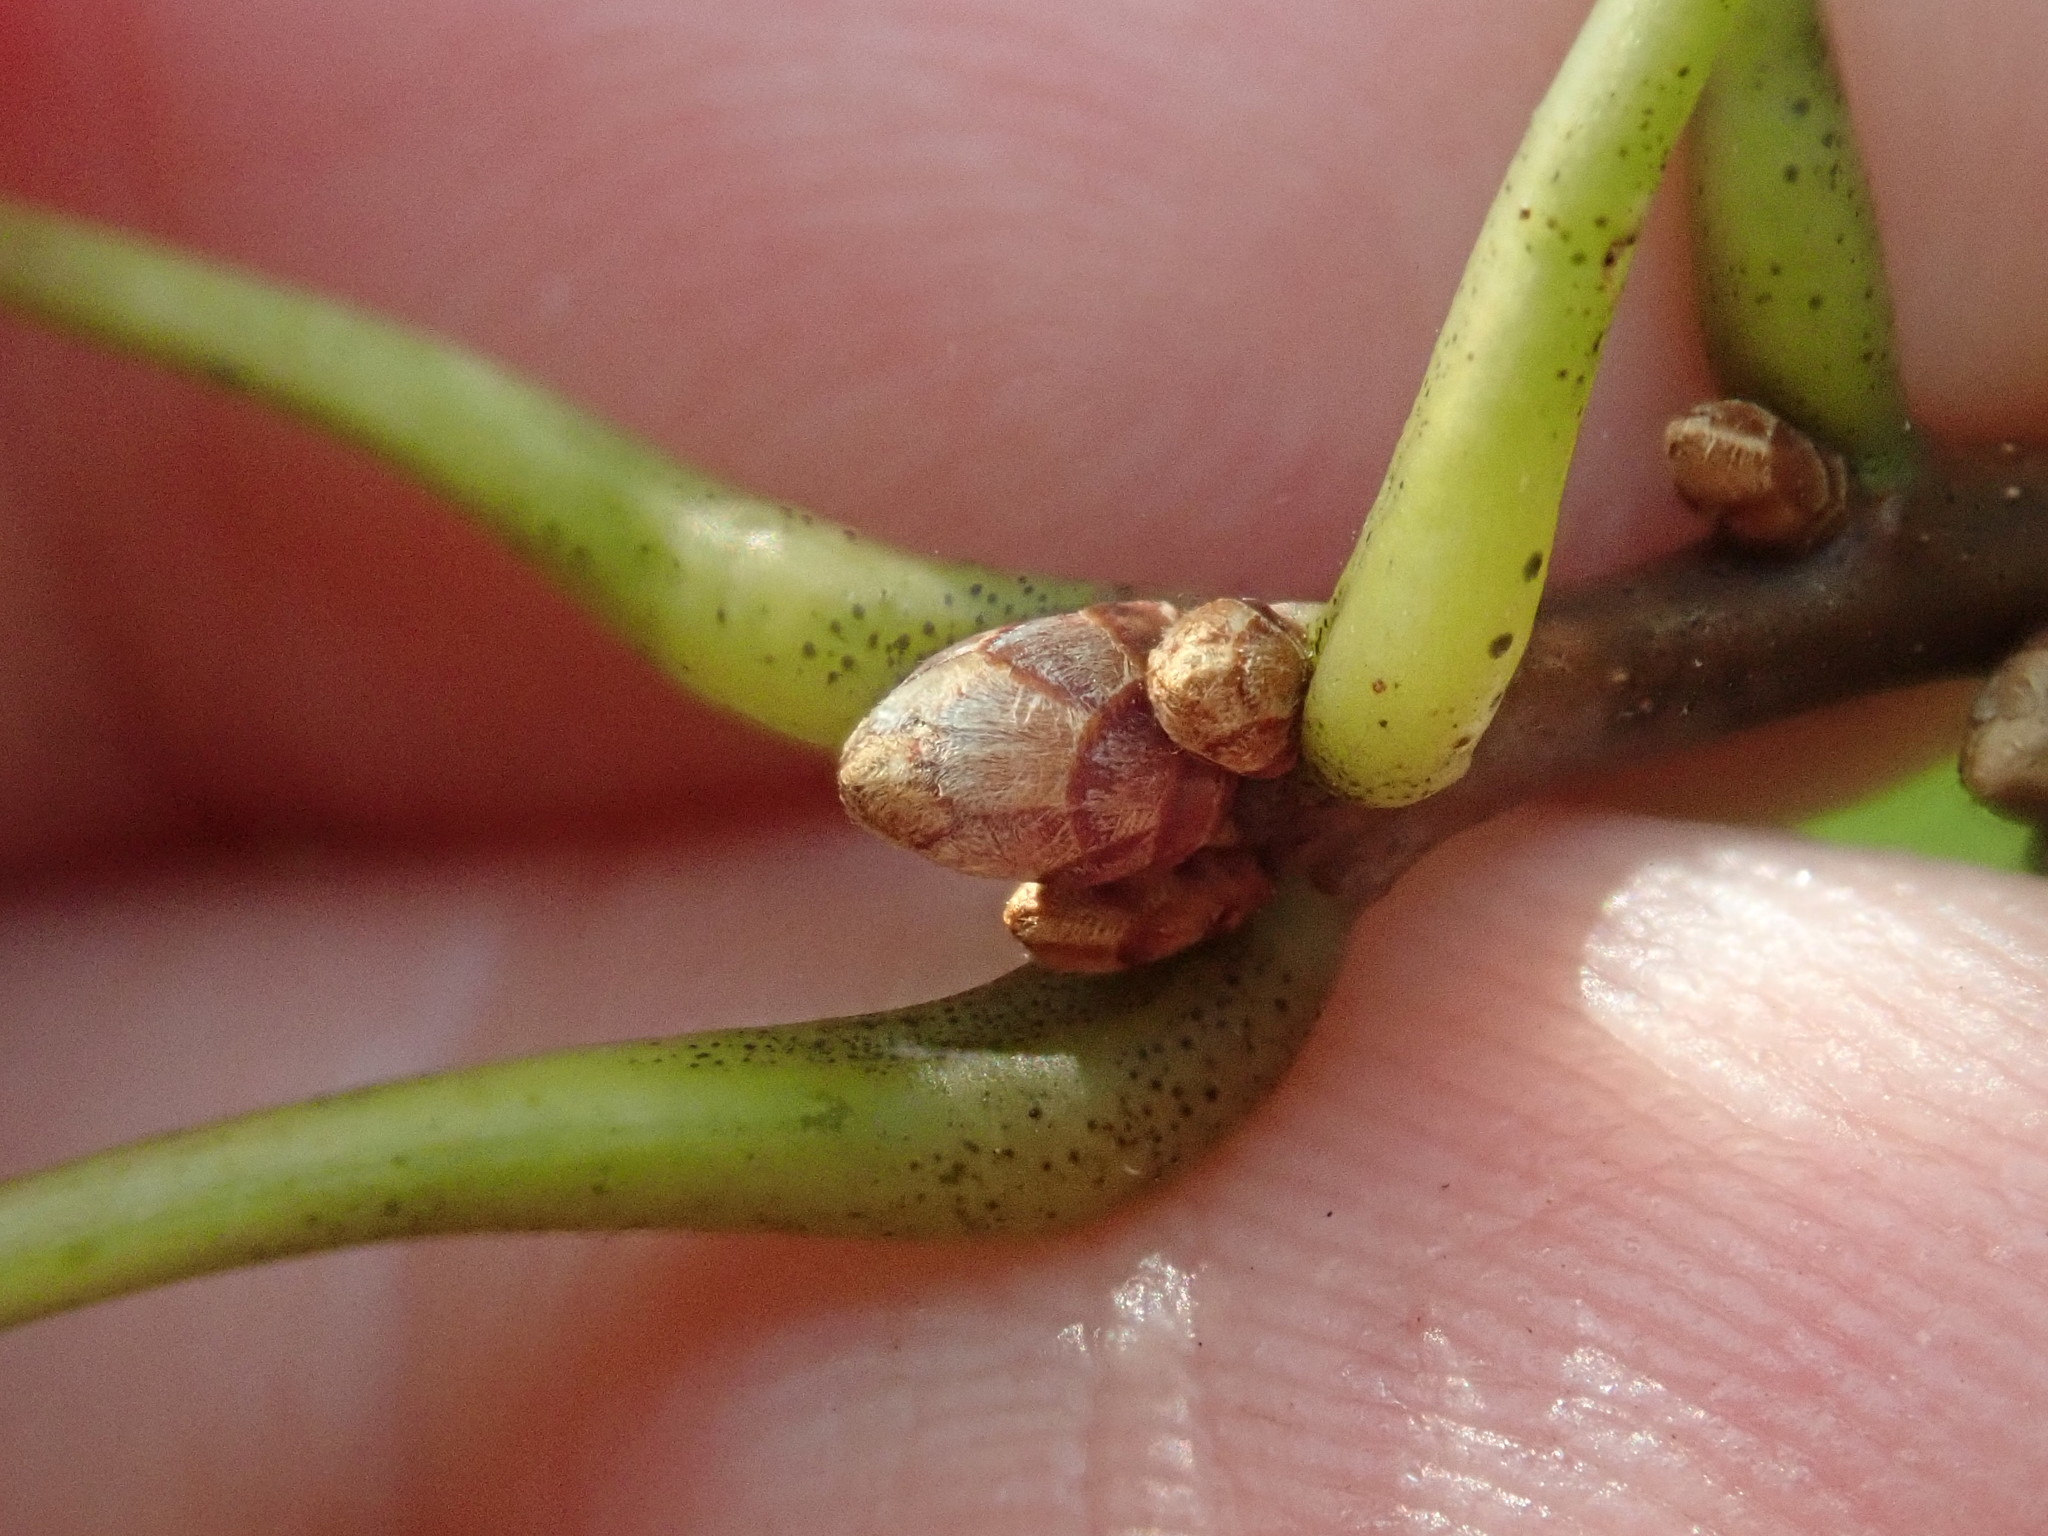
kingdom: Plantae
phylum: Tracheophyta
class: Magnoliopsida
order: Fagales
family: Fagaceae
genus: Quercus
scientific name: Quercus coccinea
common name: Scarlet oak
